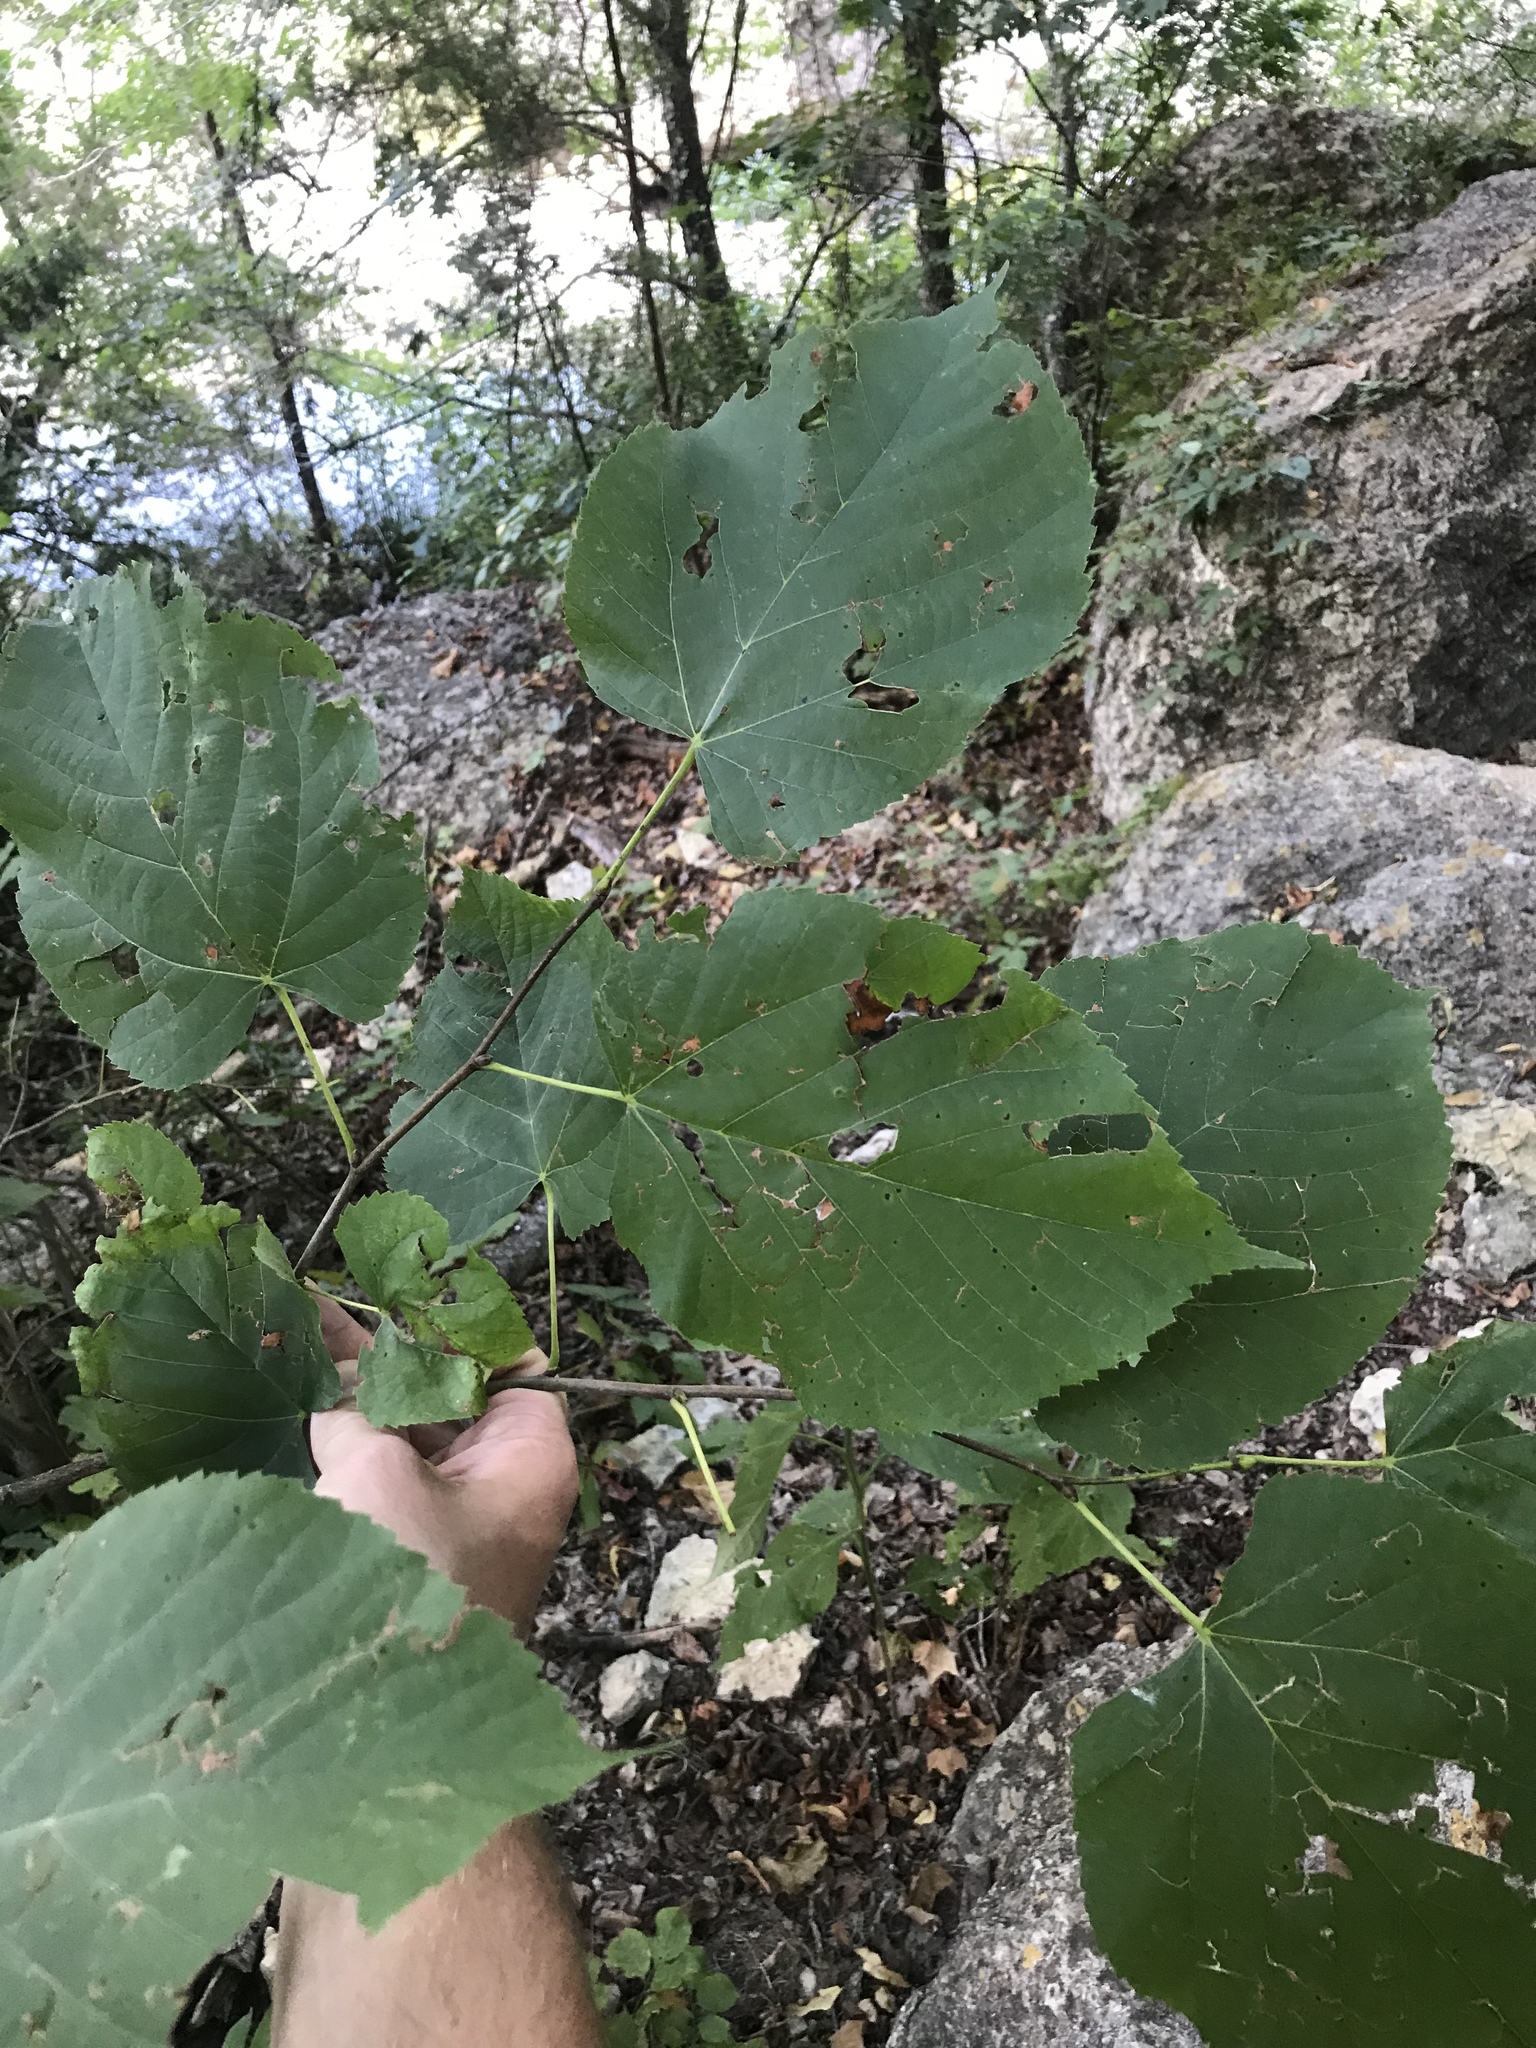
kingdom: Plantae
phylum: Tracheophyta
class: Magnoliopsida
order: Malvales
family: Malvaceae
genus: Tilia
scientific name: Tilia americana
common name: Basswood
